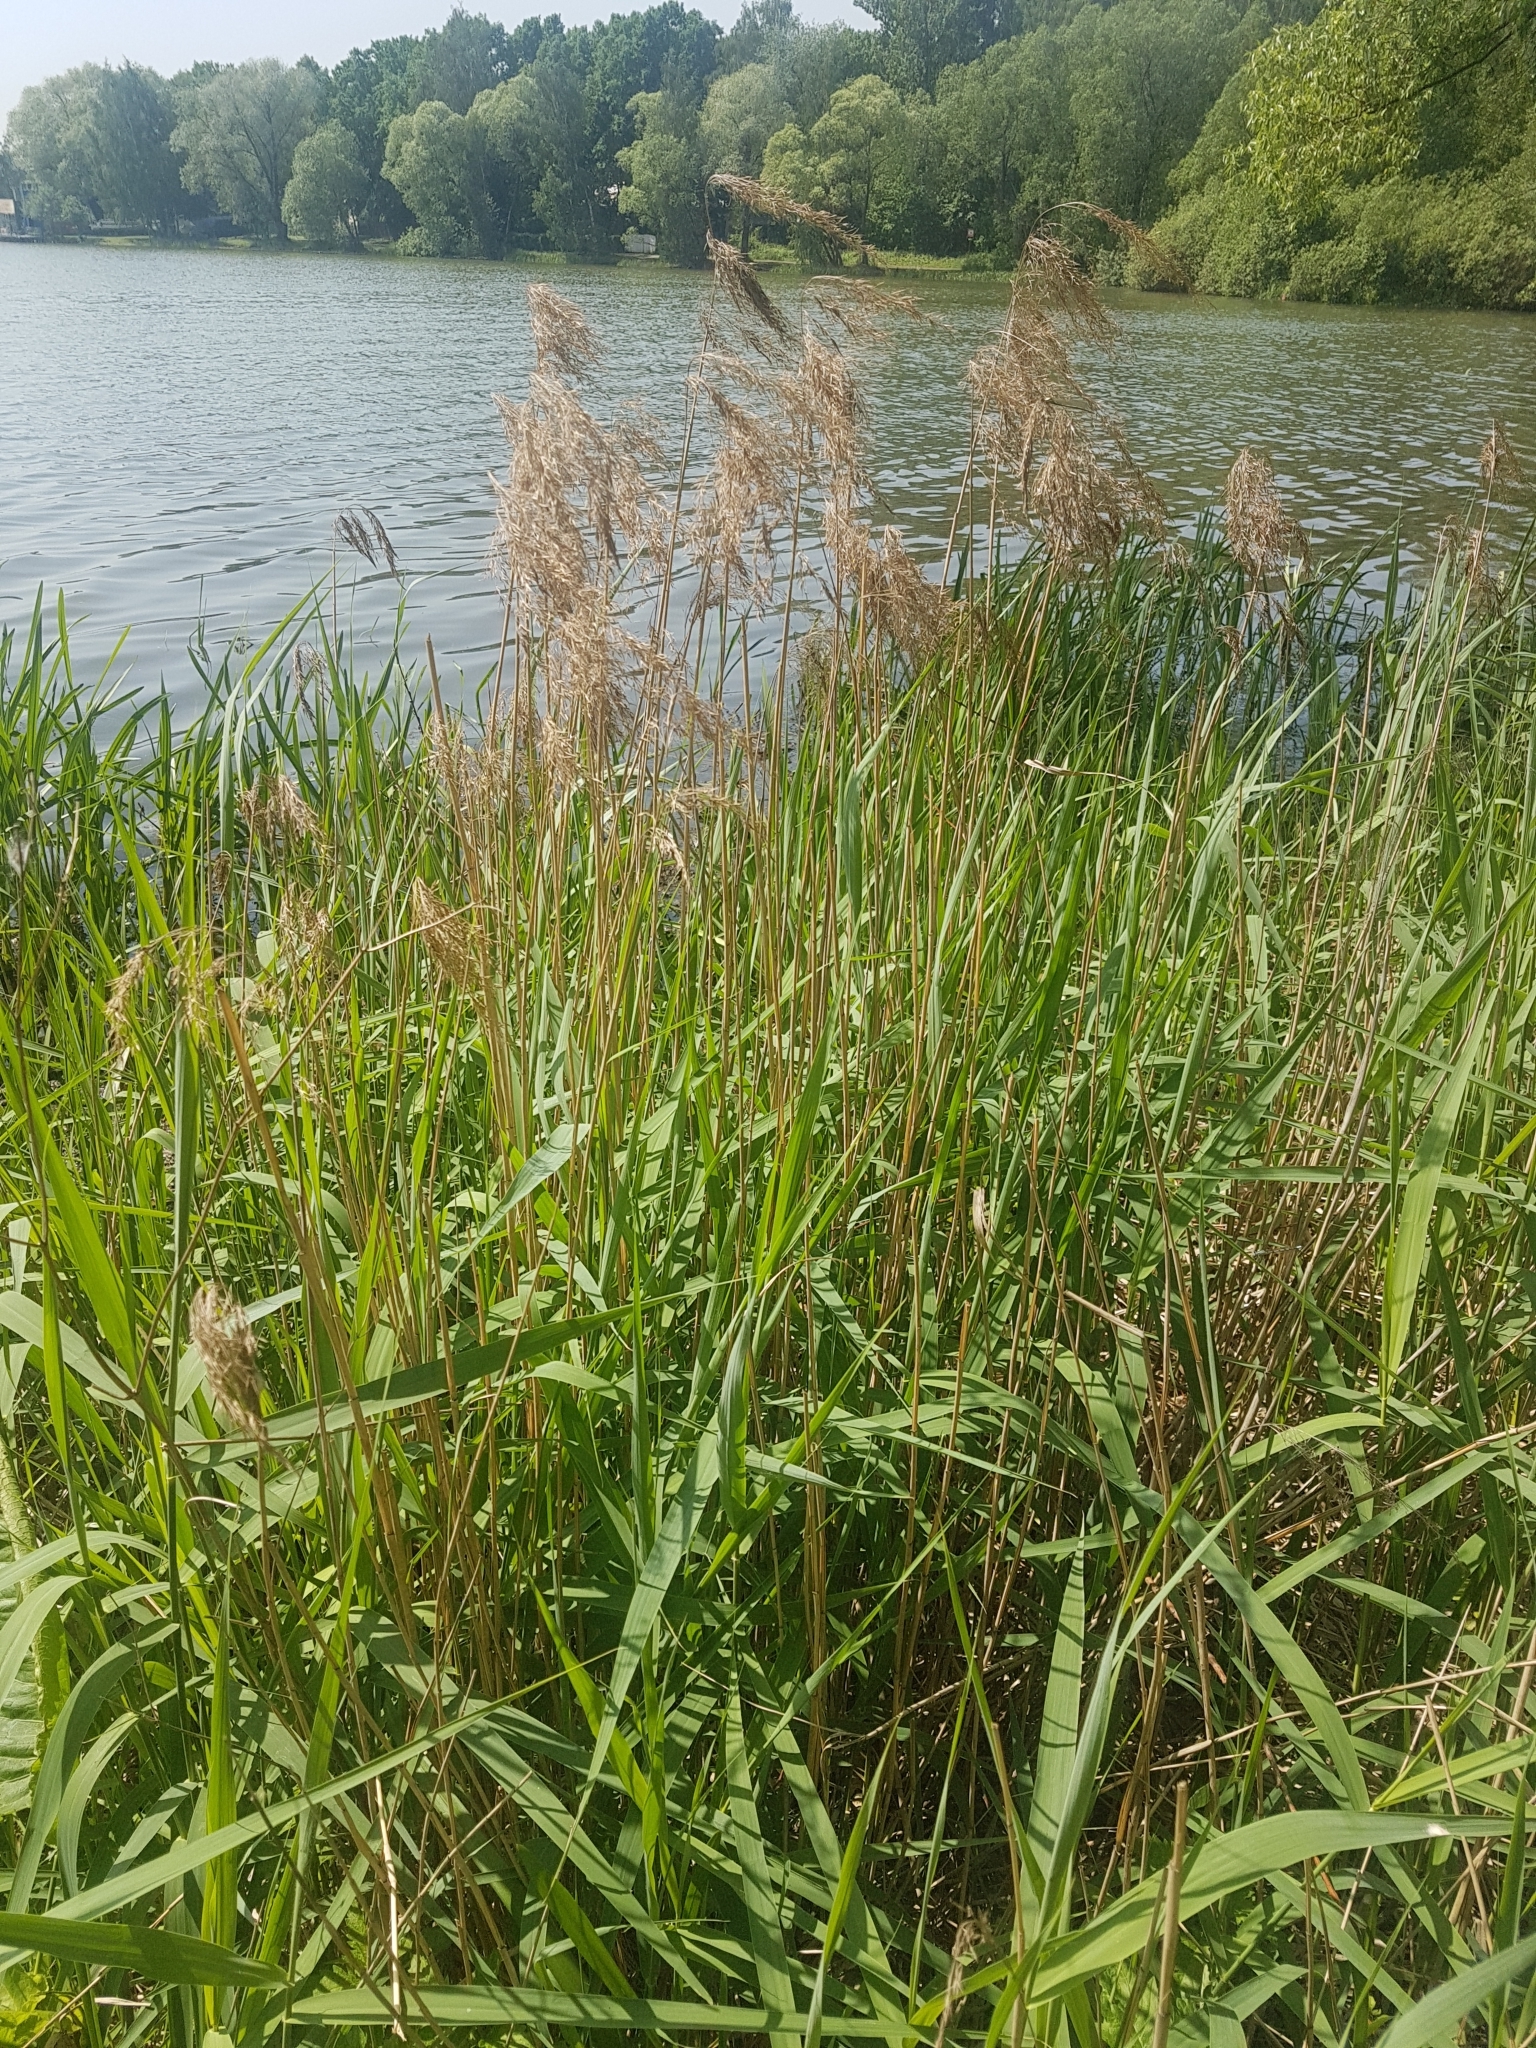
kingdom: Plantae
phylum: Tracheophyta
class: Liliopsida
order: Poales
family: Poaceae
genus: Phragmites
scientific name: Phragmites australis
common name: Common reed
